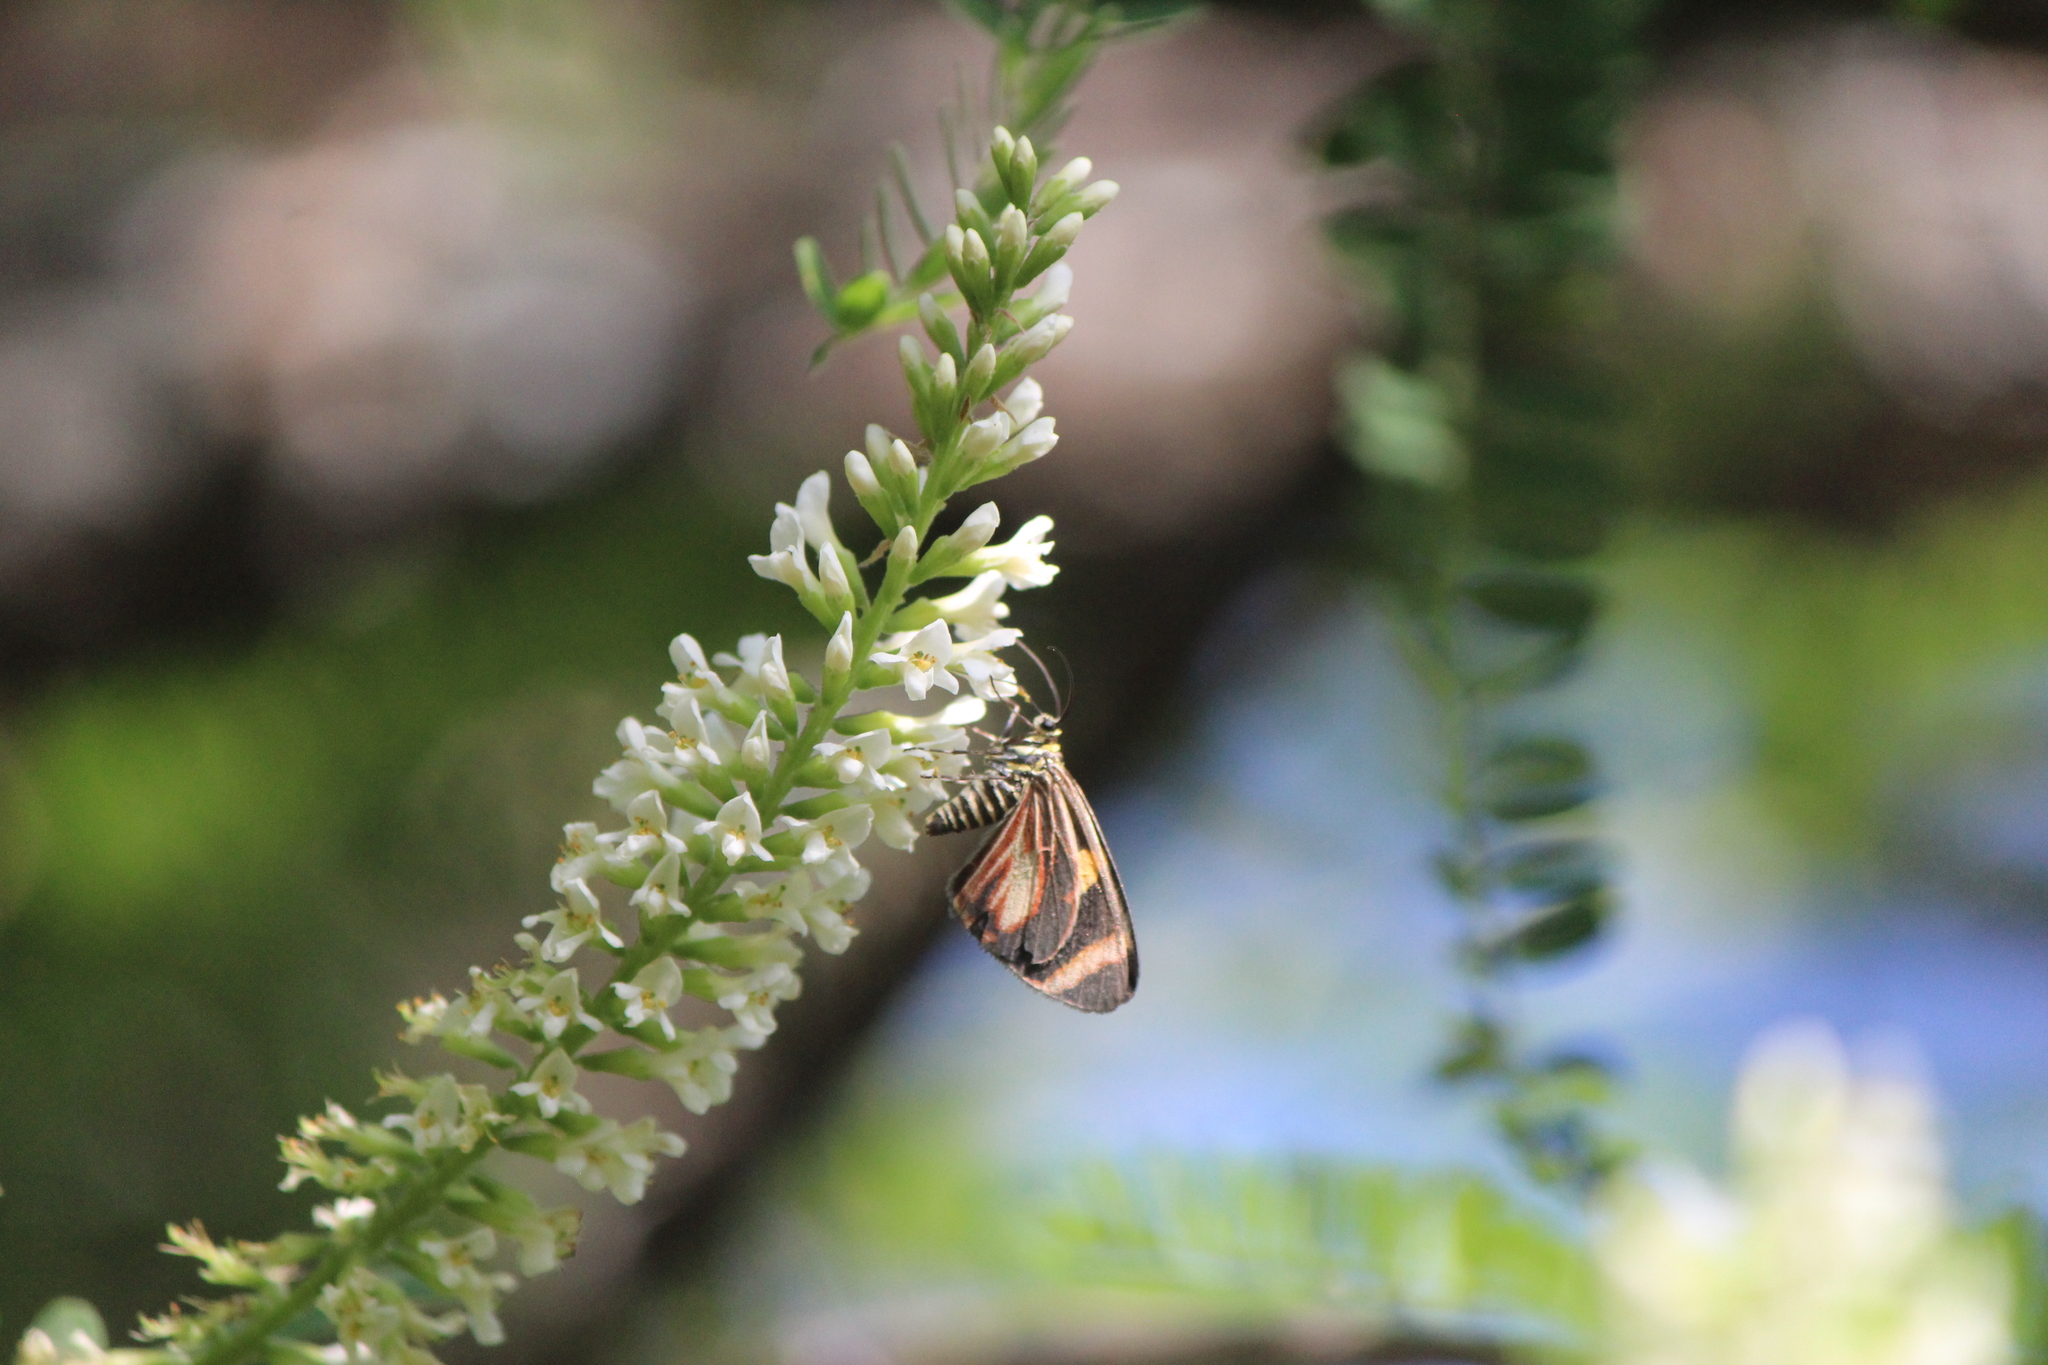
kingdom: Animalia
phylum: Arthropoda
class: Insecta
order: Lepidoptera
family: Geometridae
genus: Eutrepsia
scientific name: Eutrepsia haemataria
